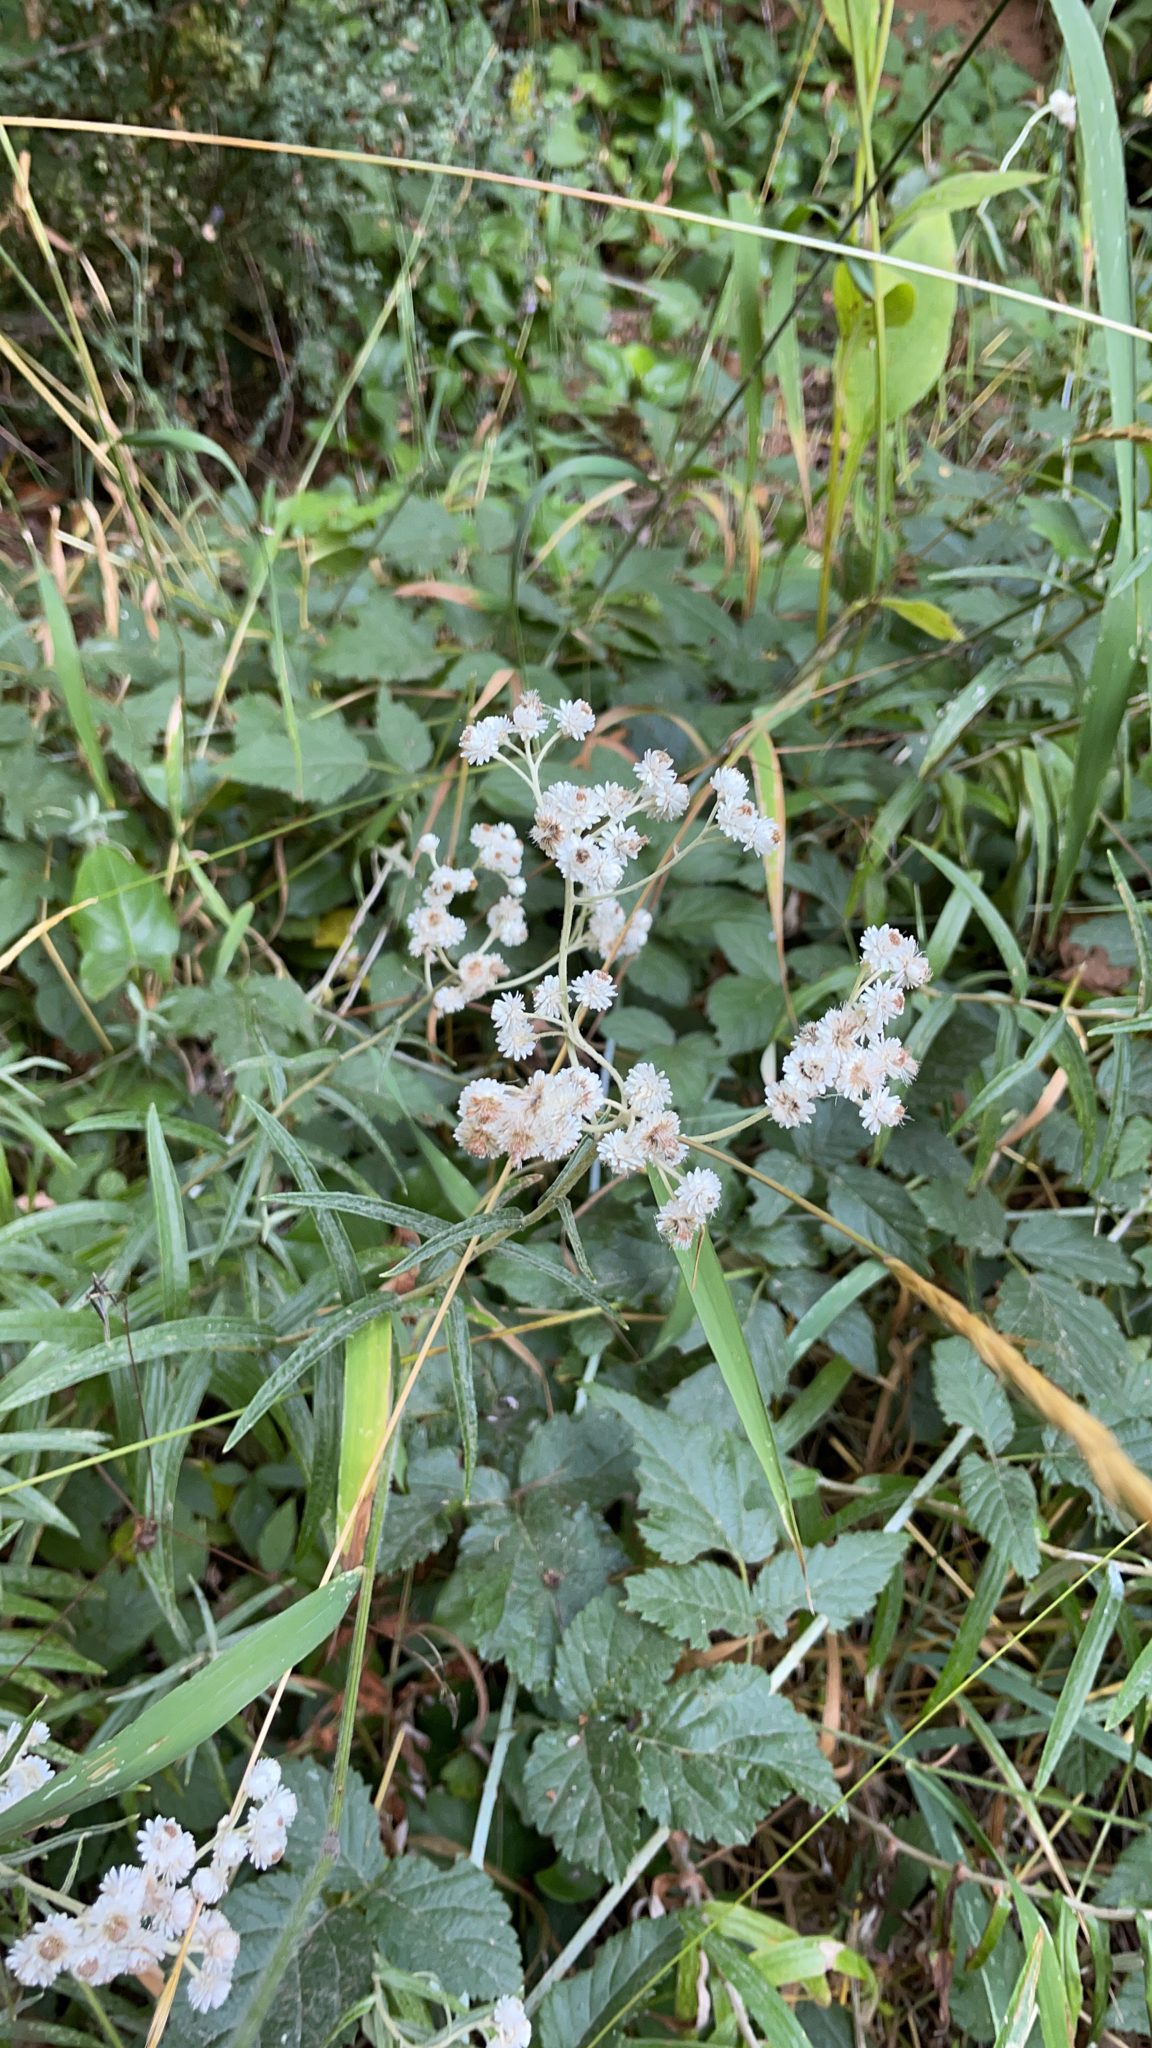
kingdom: Plantae
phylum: Tracheophyta
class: Magnoliopsida
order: Asterales
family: Asteraceae
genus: Anaphalis
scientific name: Anaphalis margaritacea
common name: Pearly everlasting
